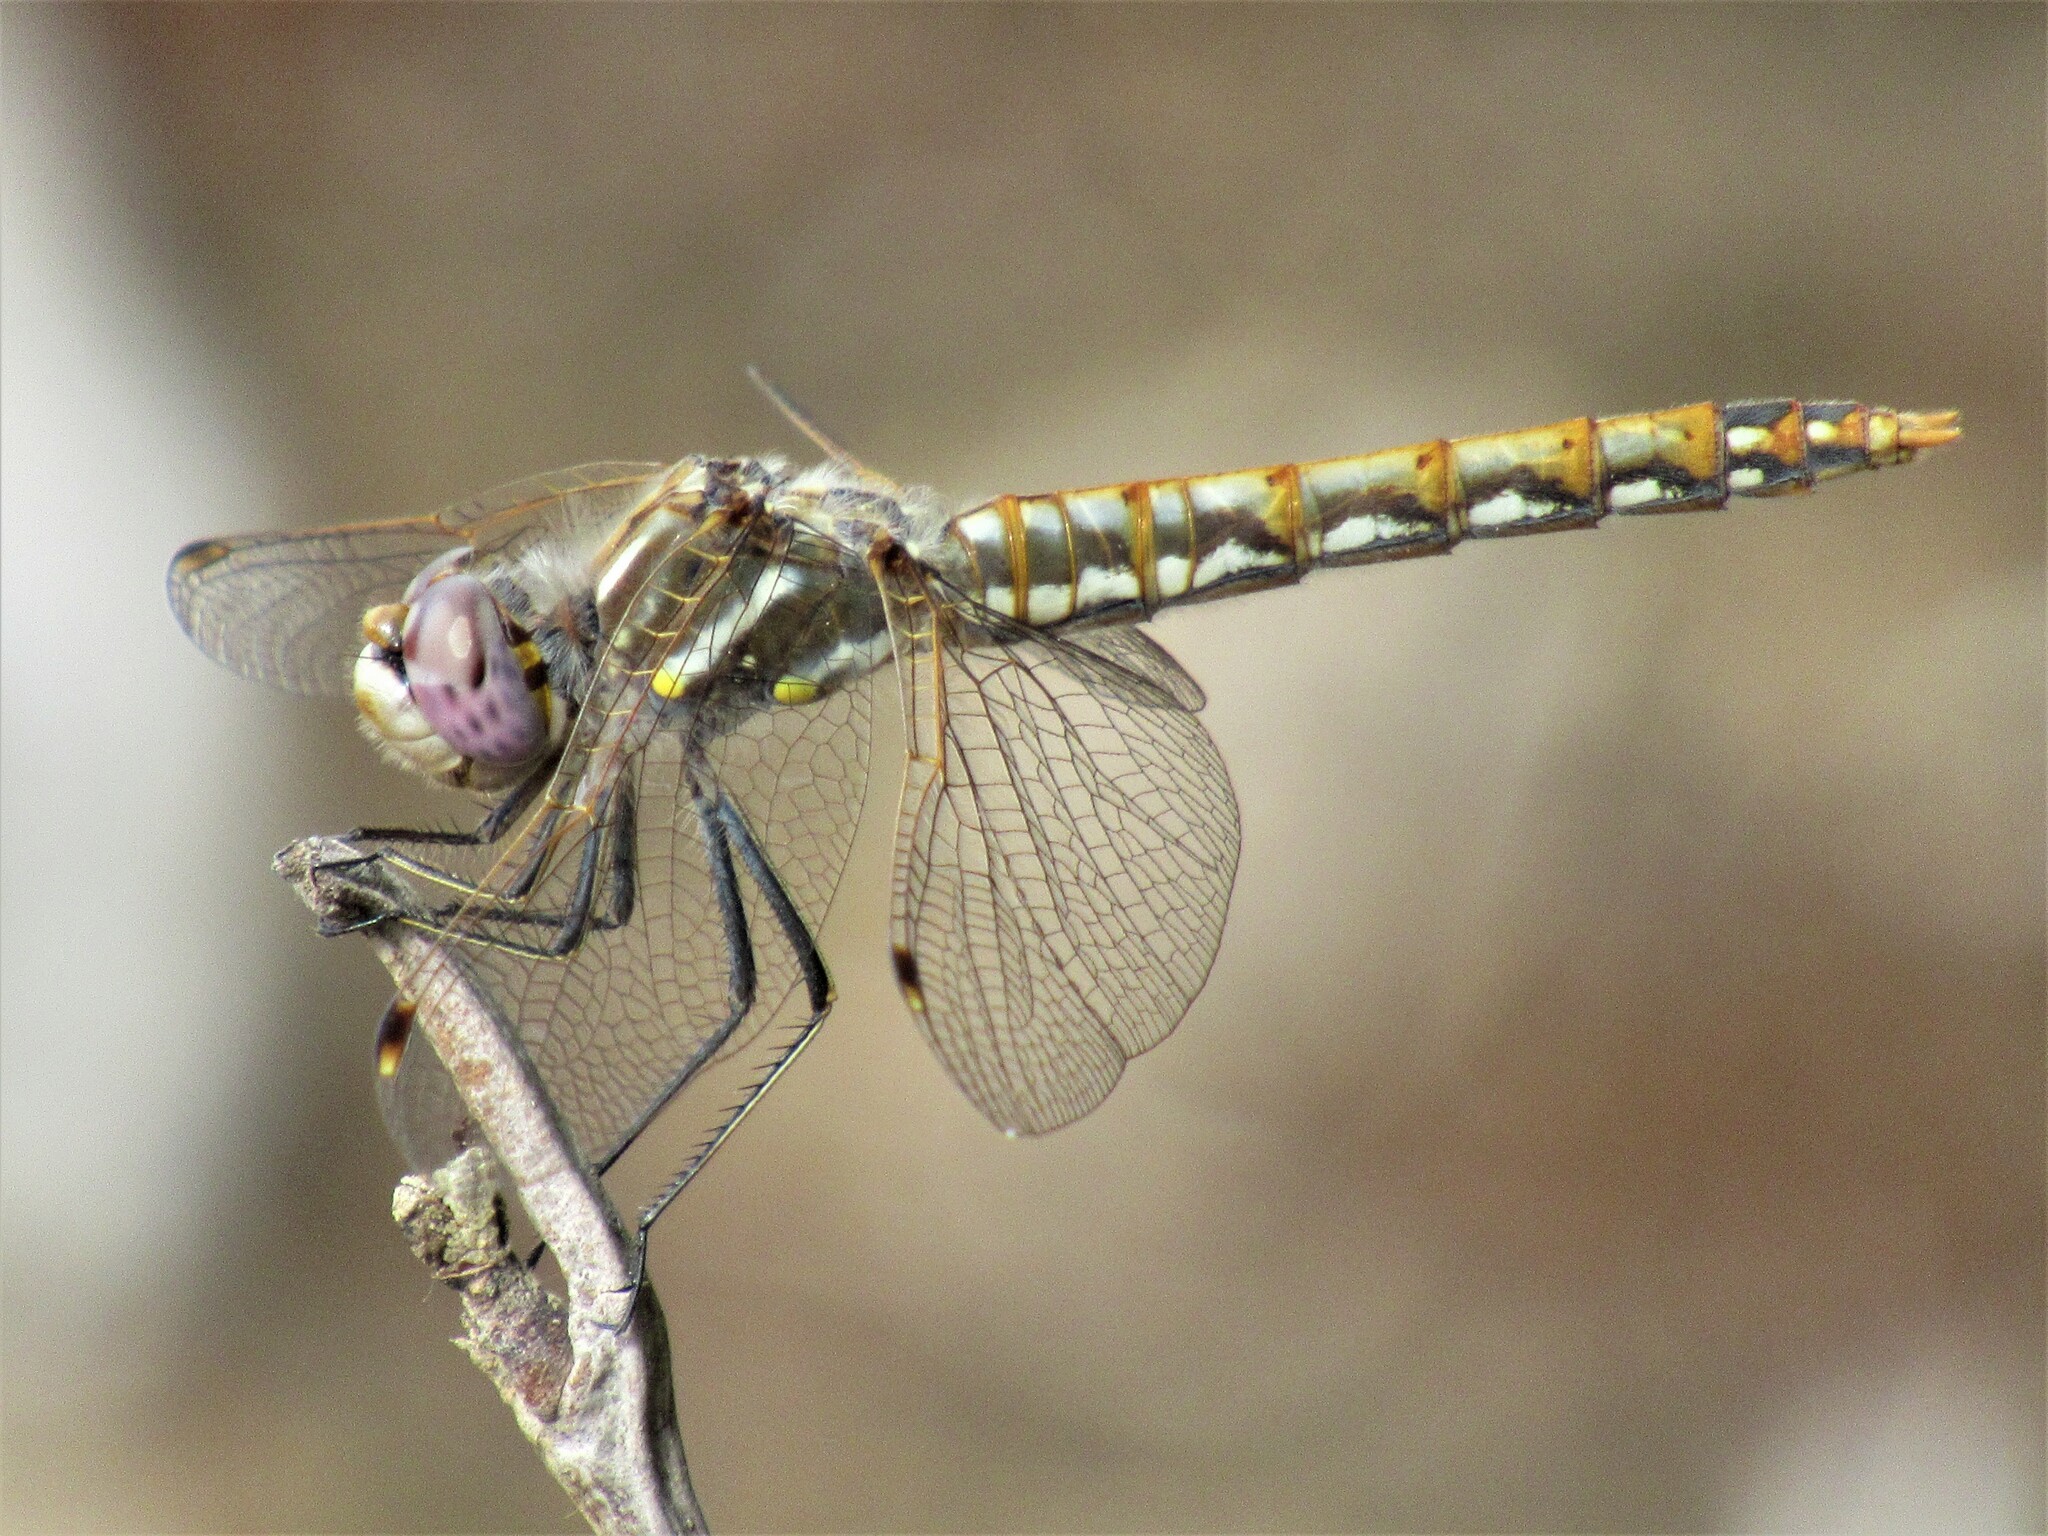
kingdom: Animalia
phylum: Arthropoda
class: Insecta
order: Odonata
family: Libellulidae
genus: Sympetrum
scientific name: Sympetrum corruptum
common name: Variegated meadowhawk
